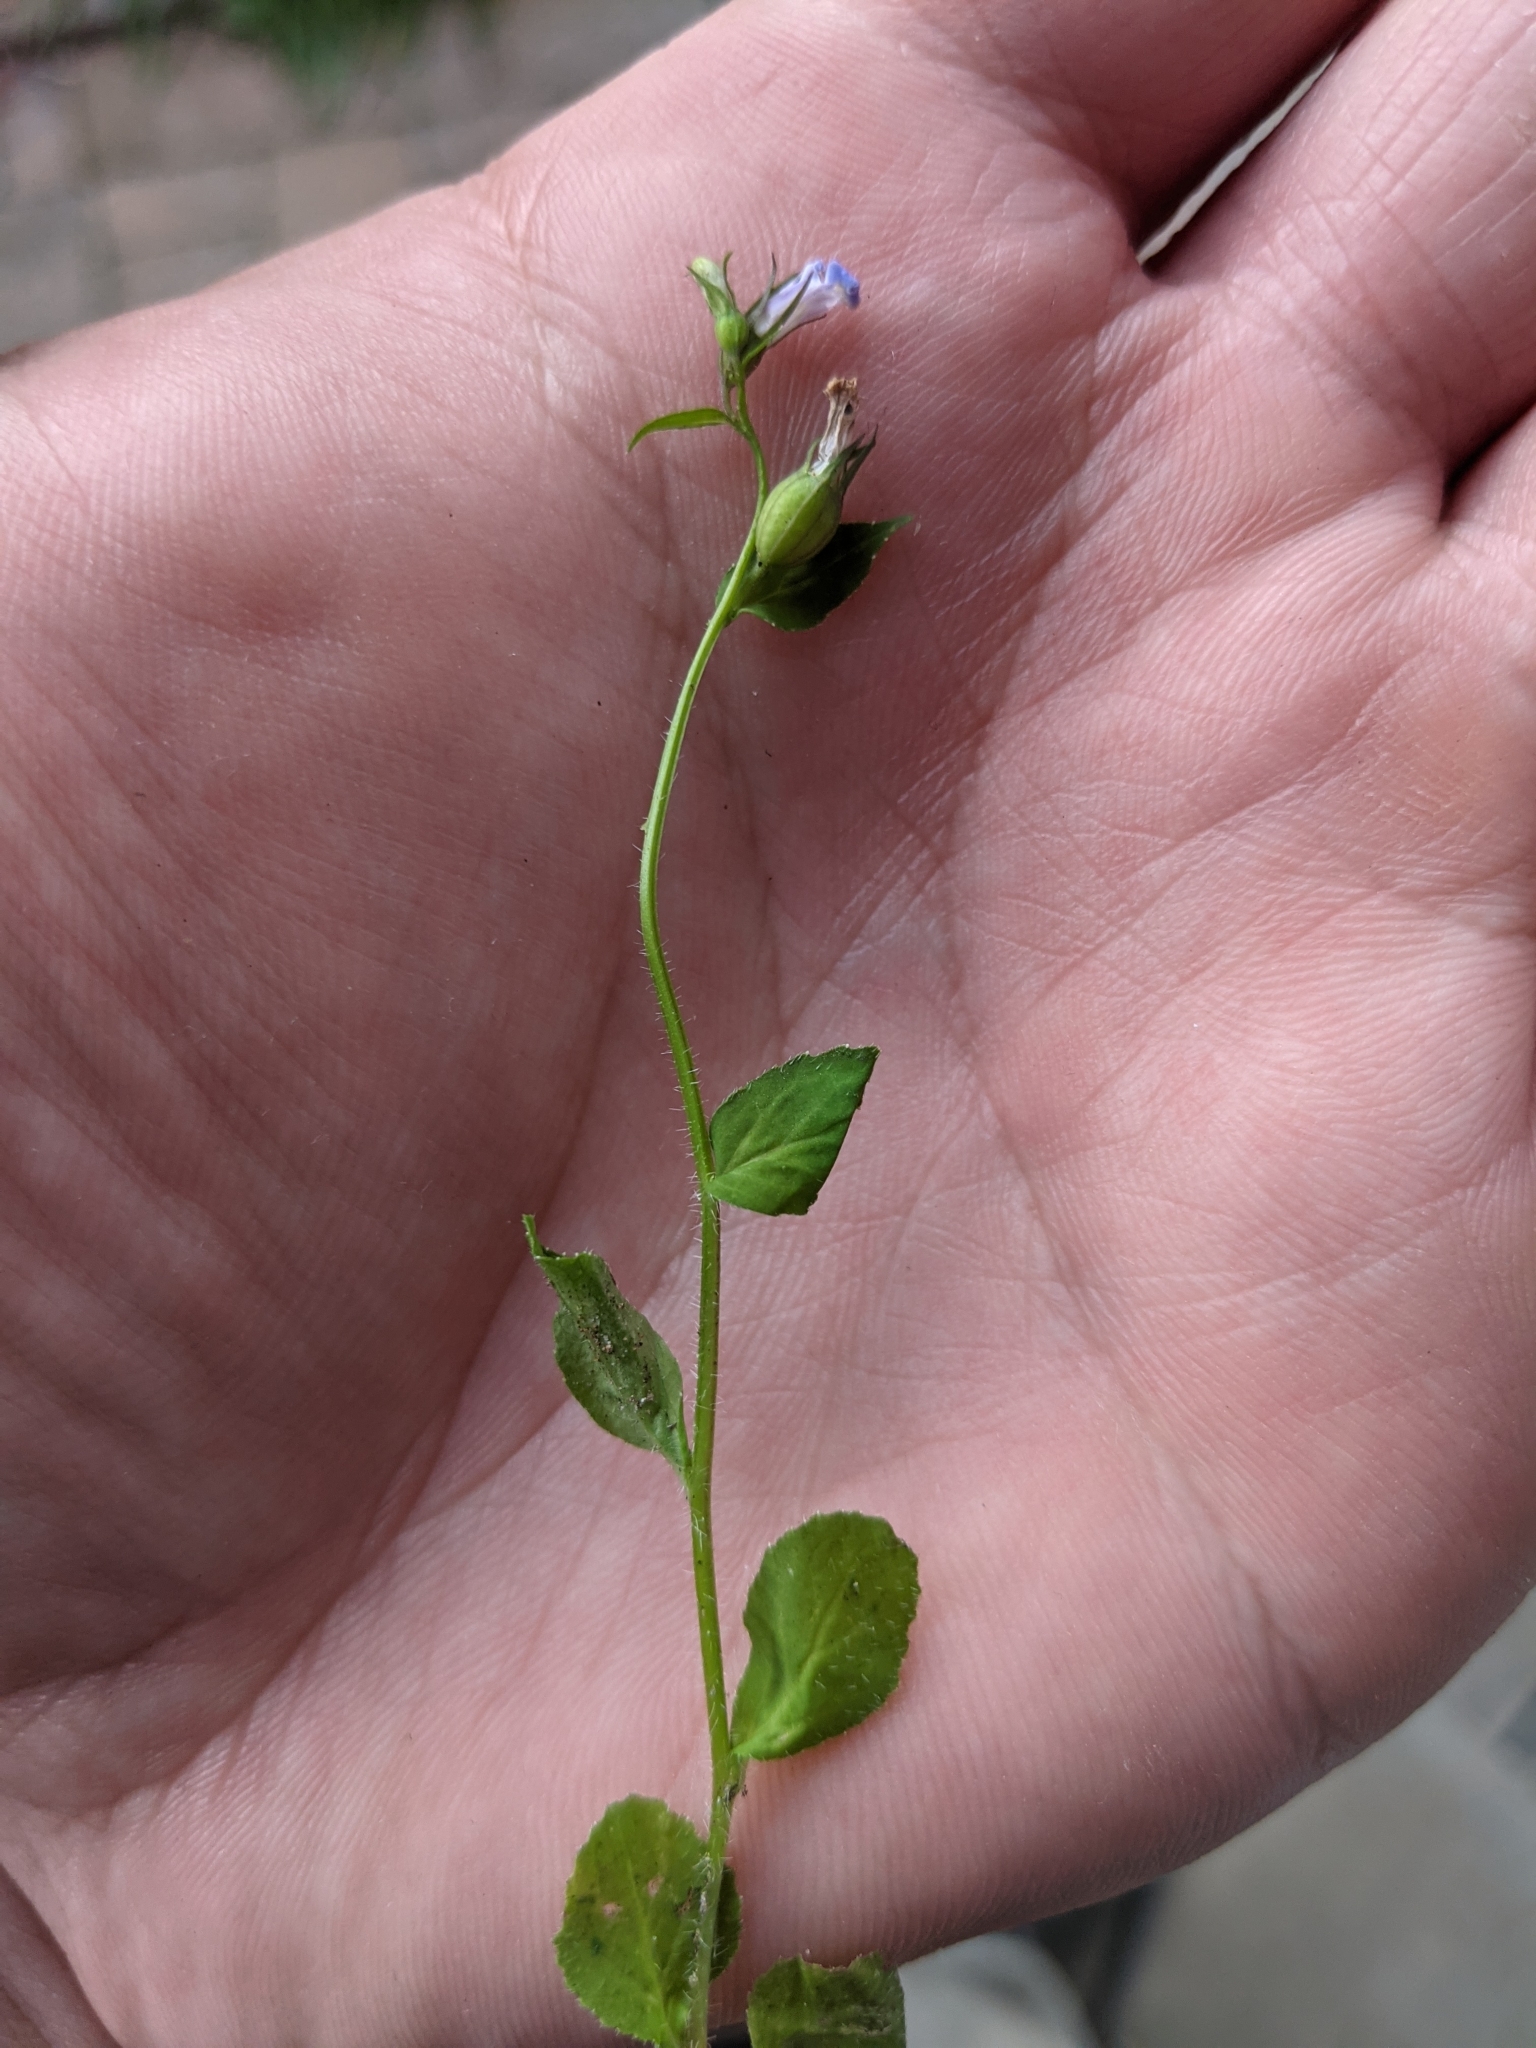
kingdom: Plantae
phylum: Tracheophyta
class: Magnoliopsida
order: Asterales
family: Campanulaceae
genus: Lobelia
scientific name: Lobelia inflata
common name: Indian tobacco
